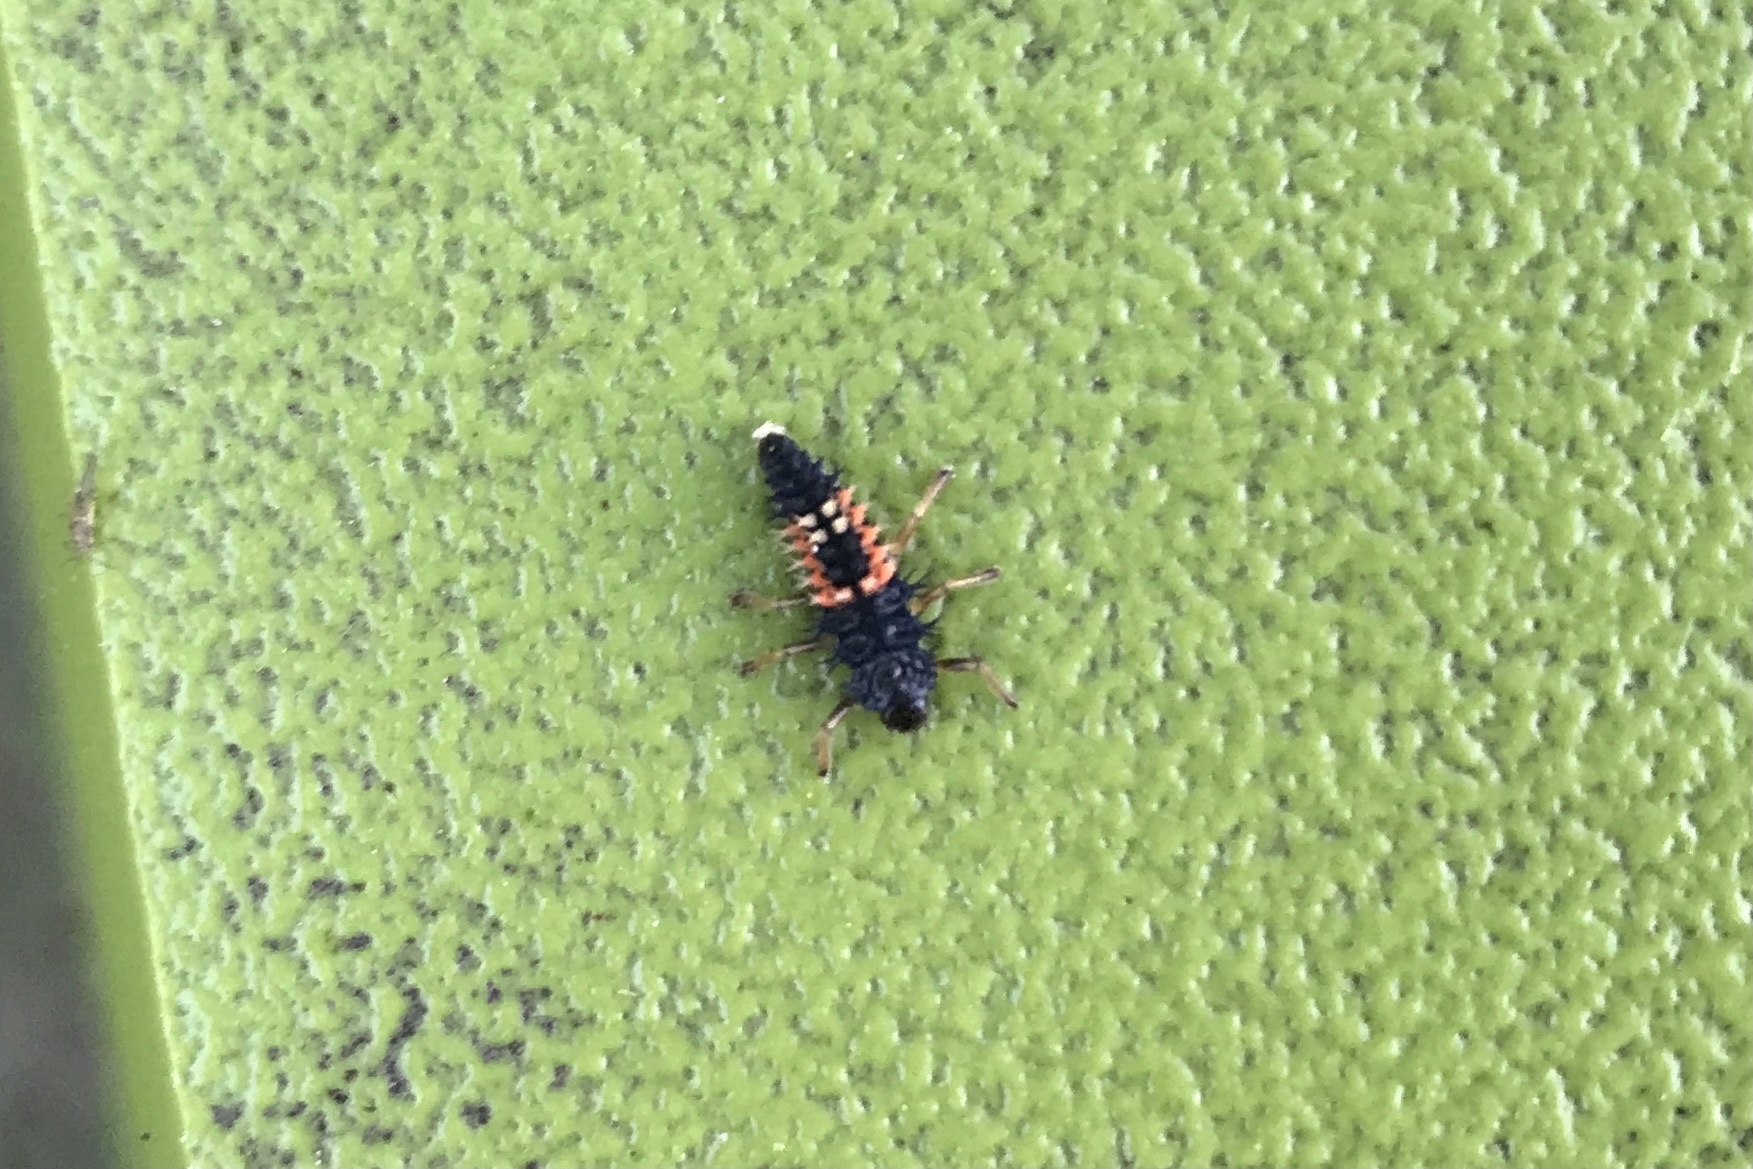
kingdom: Animalia
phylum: Arthropoda
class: Insecta
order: Coleoptera
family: Coccinellidae
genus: Harmonia
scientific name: Harmonia axyridis
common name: Harlequin ladybird
